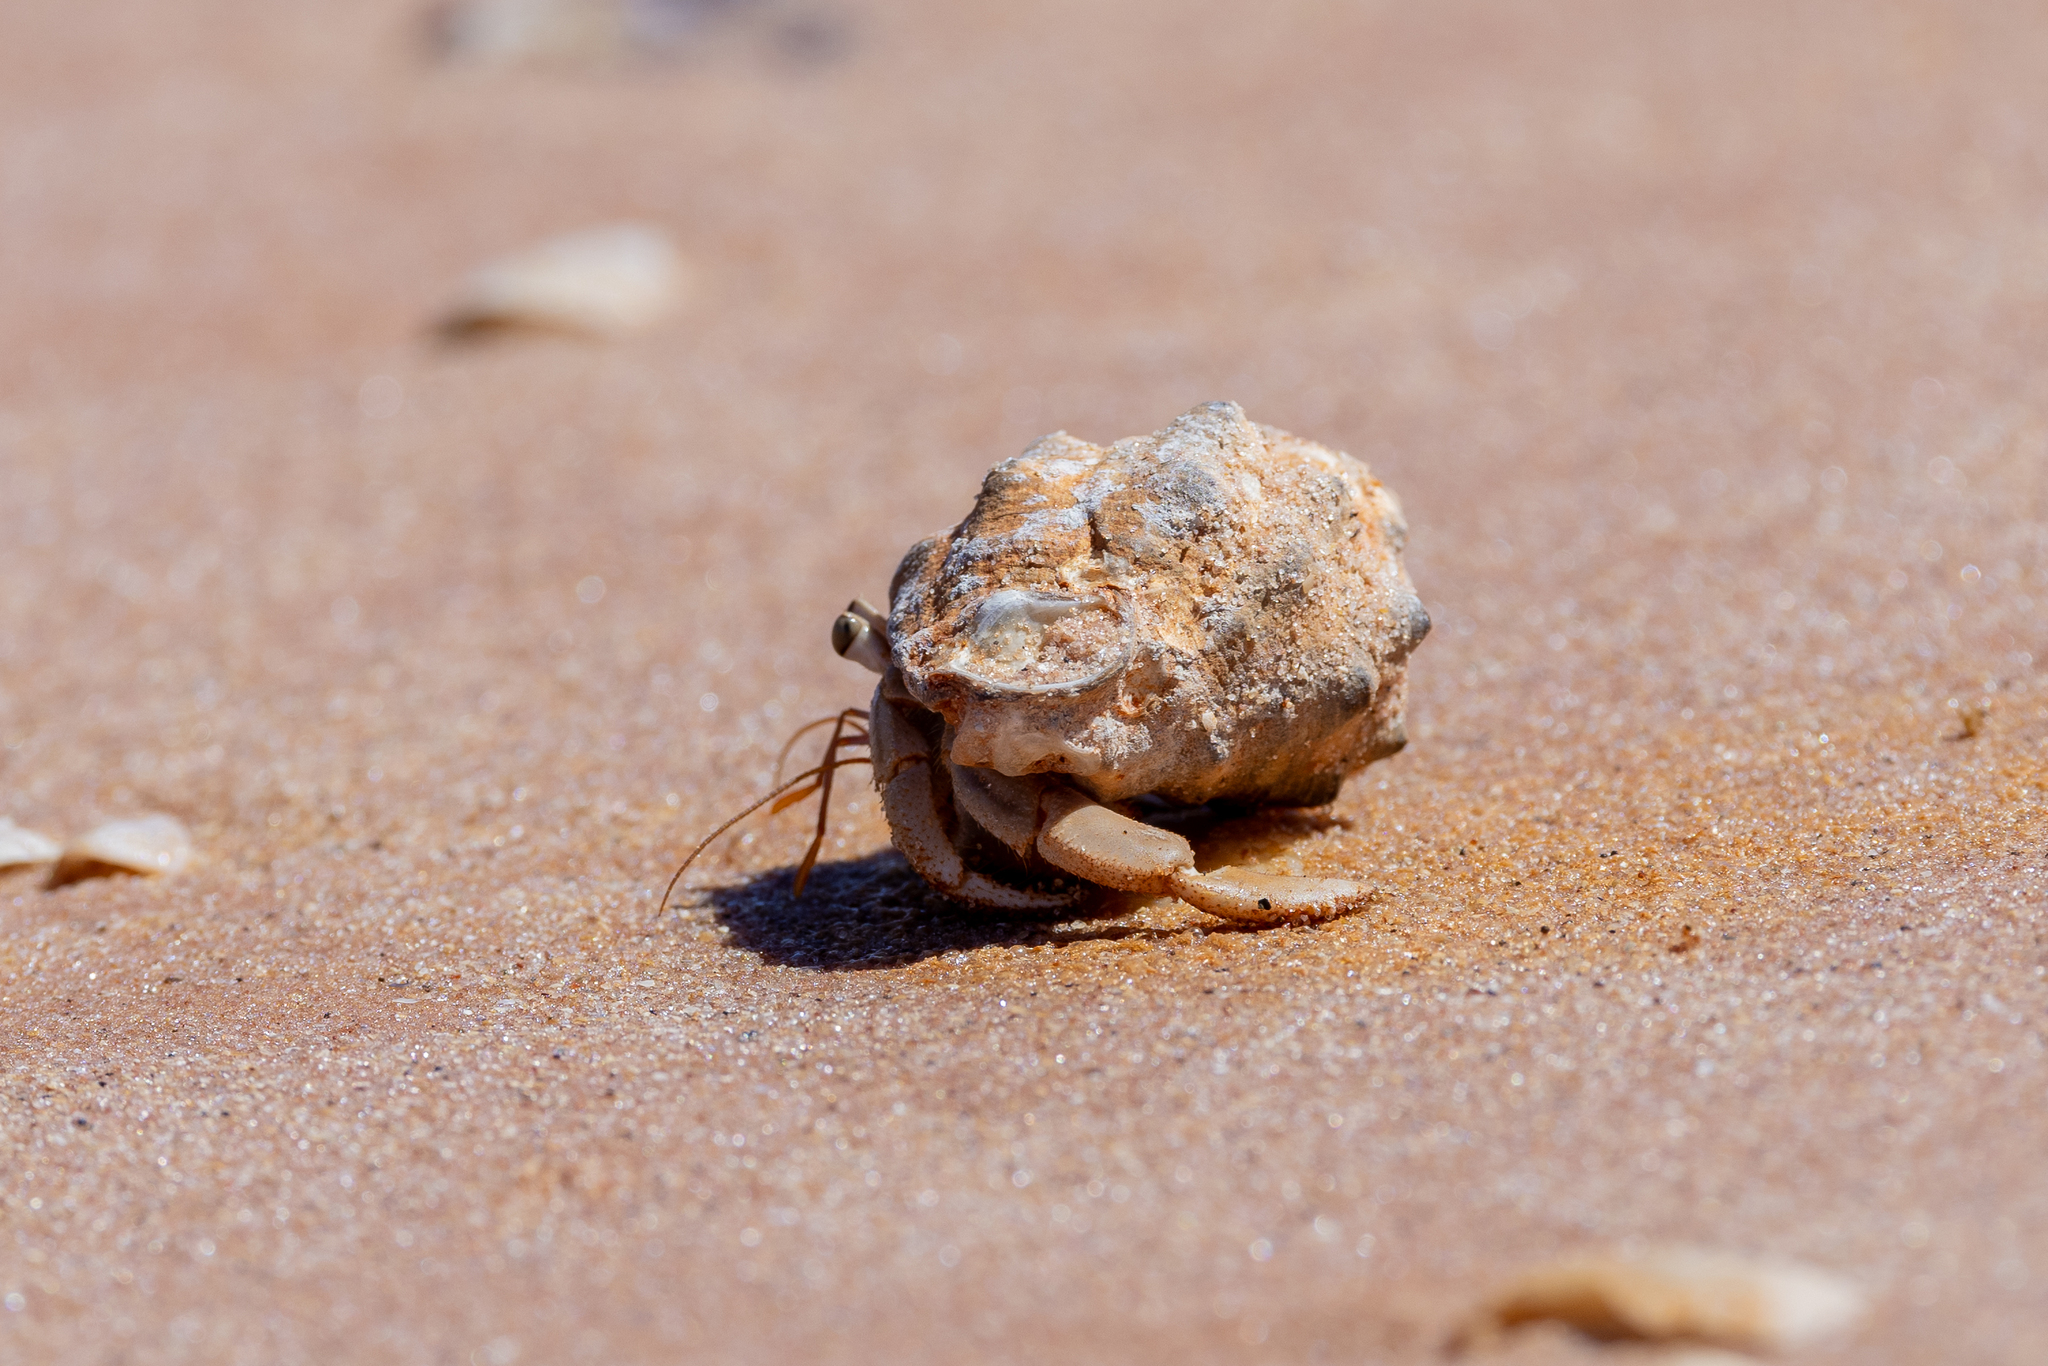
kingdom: Animalia
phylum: Arthropoda
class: Malacostraca
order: Decapoda
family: Coenobitidae
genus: Coenobita
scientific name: Coenobita variabilis
